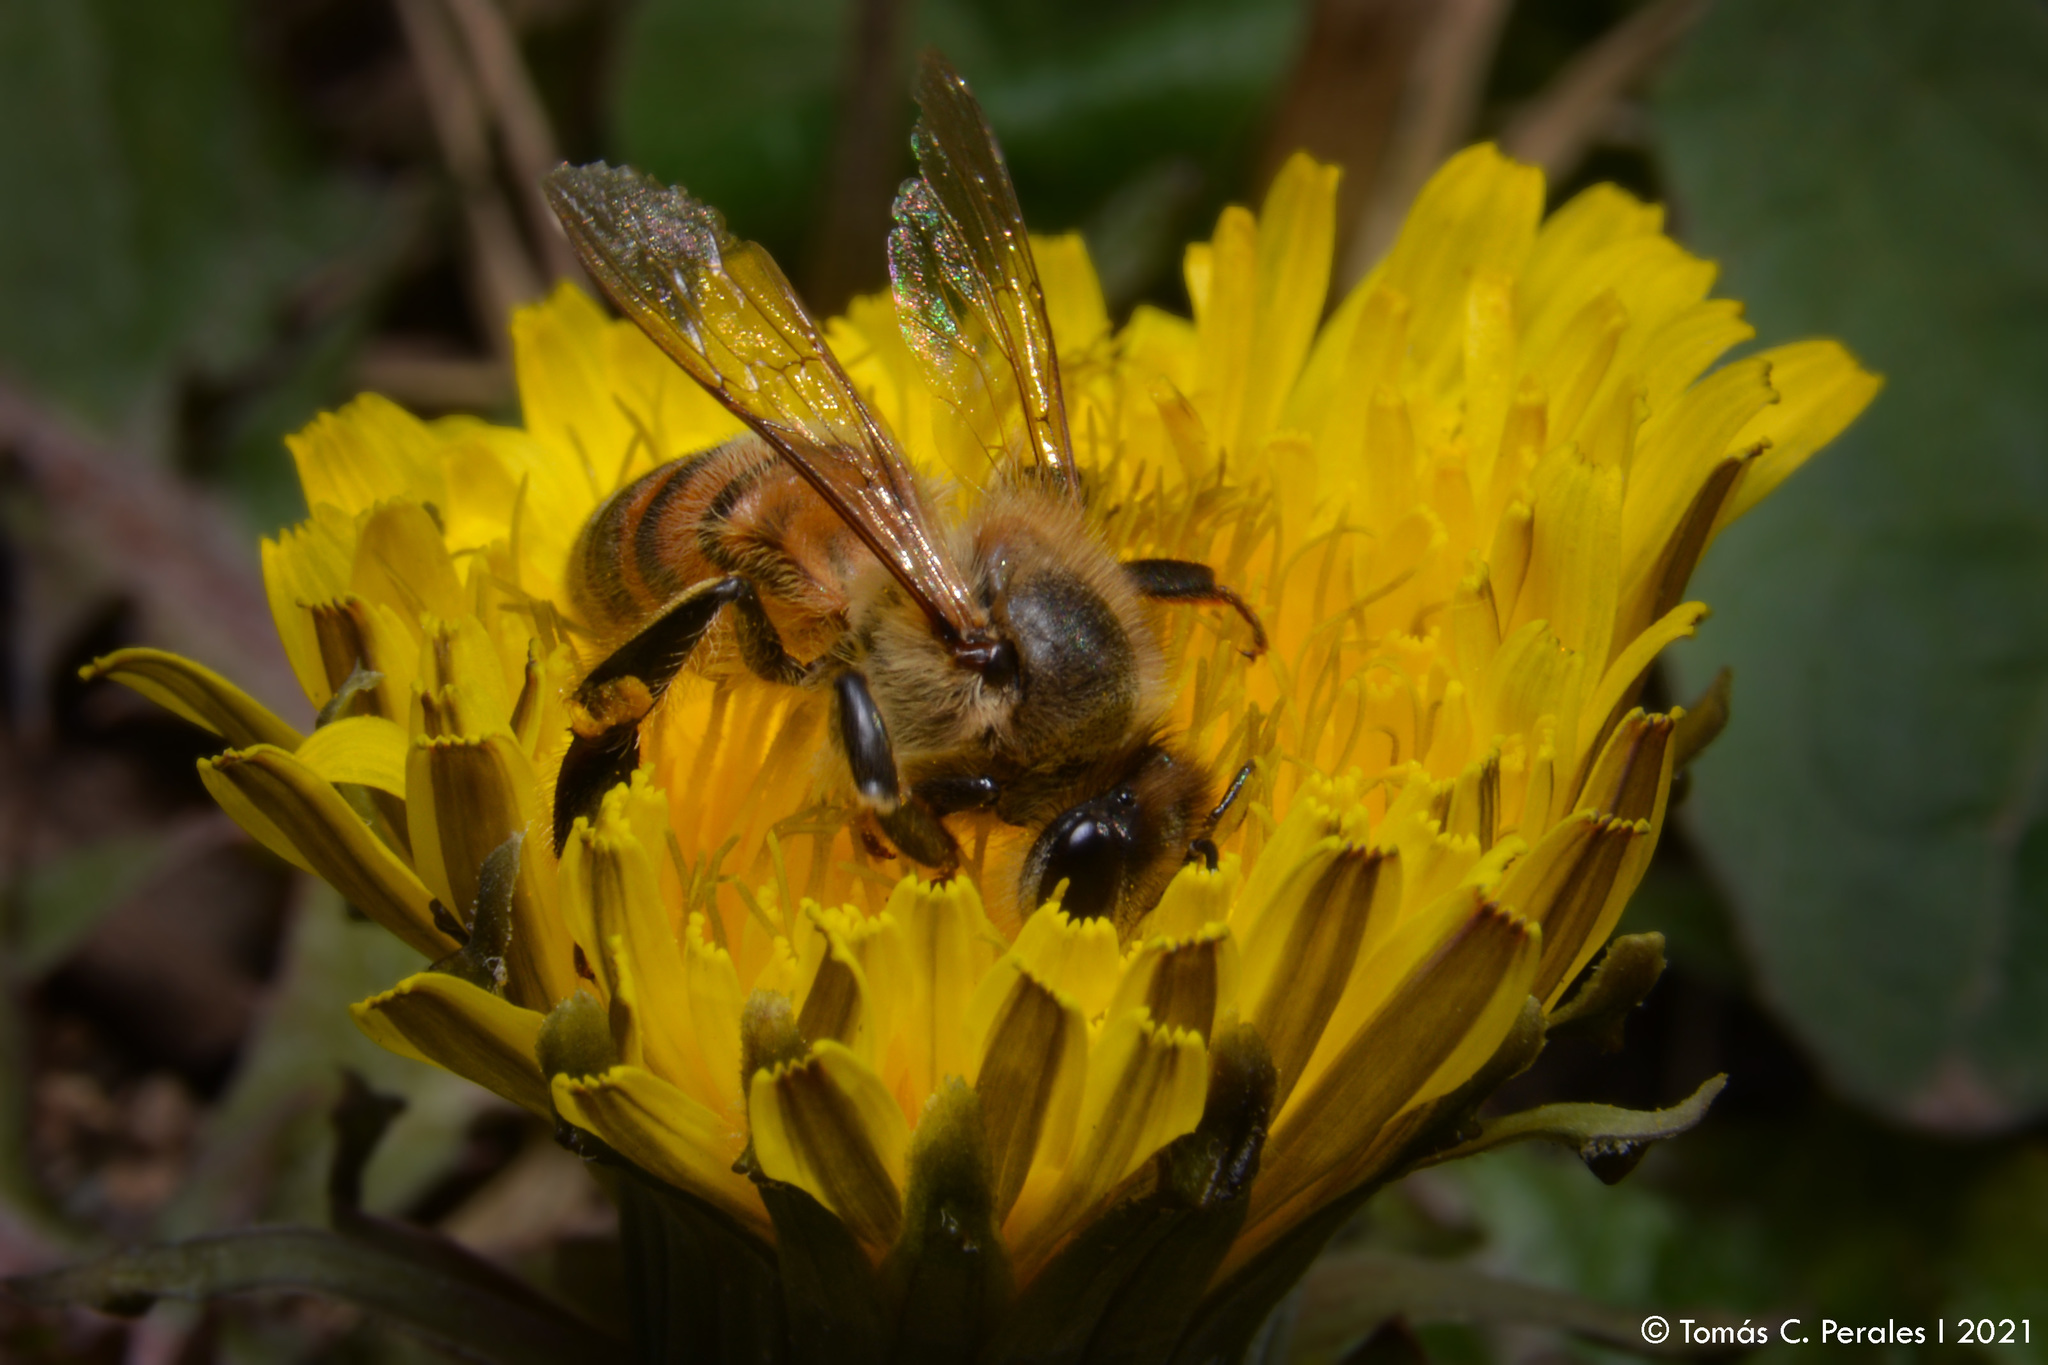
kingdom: Plantae
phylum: Tracheophyta
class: Magnoliopsida
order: Asterales
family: Asteraceae
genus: Taraxacum
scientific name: Taraxacum officinale
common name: Common dandelion
